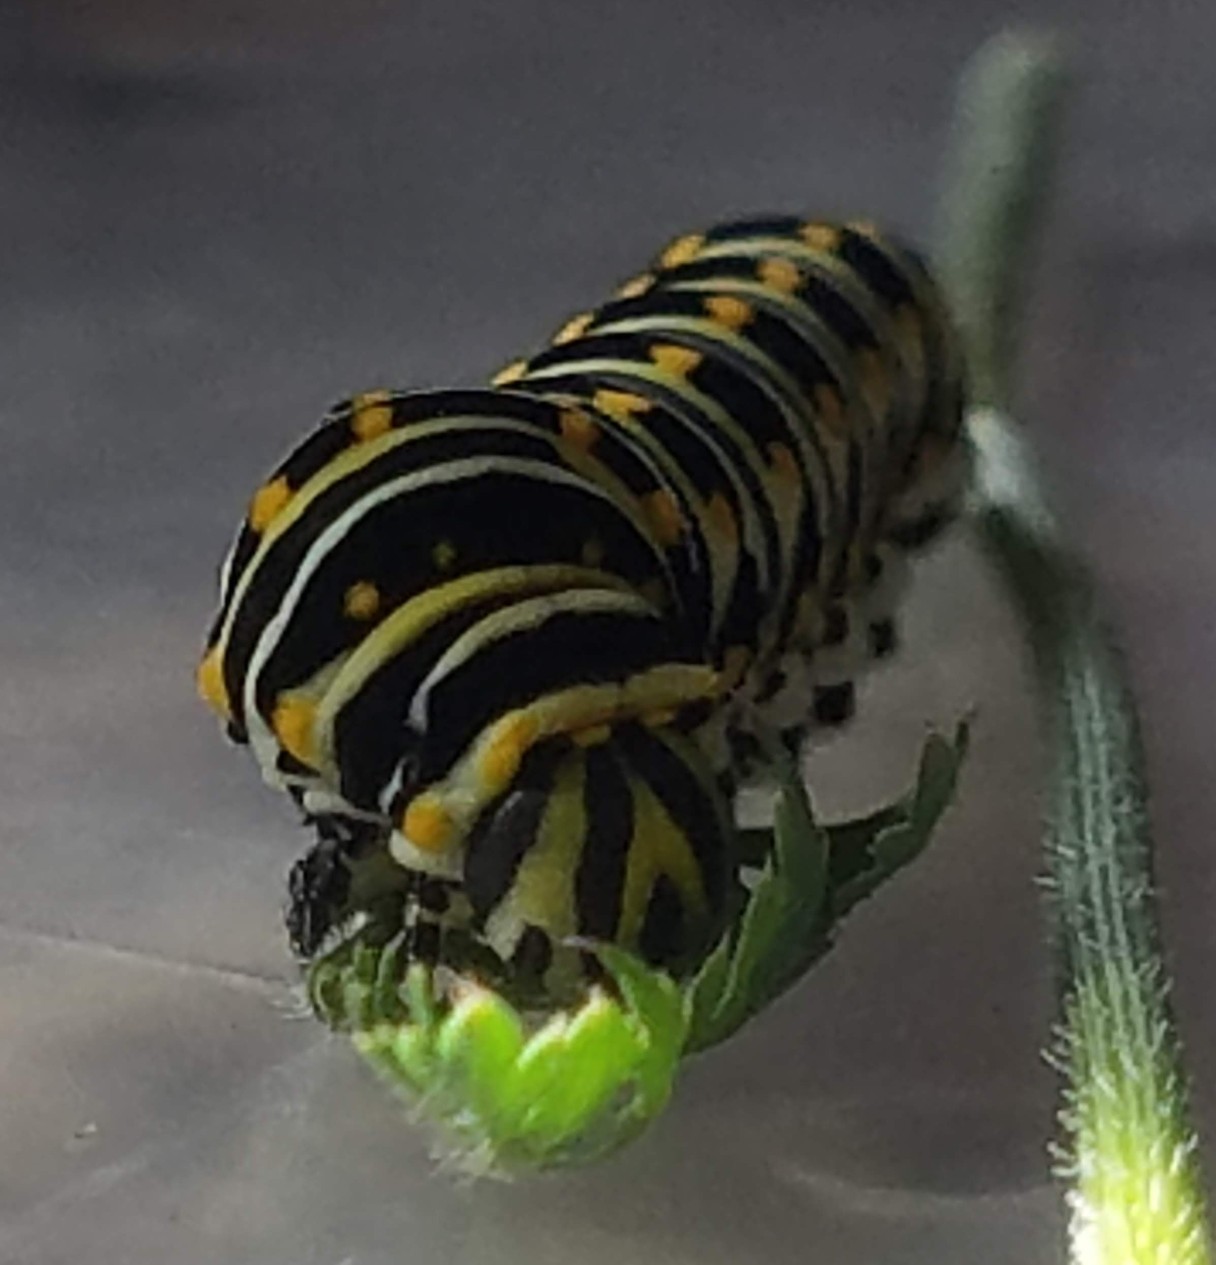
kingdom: Animalia
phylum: Arthropoda
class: Insecta
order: Lepidoptera
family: Papilionidae
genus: Papilio
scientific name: Papilio polyxenes
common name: Black swallowtail
